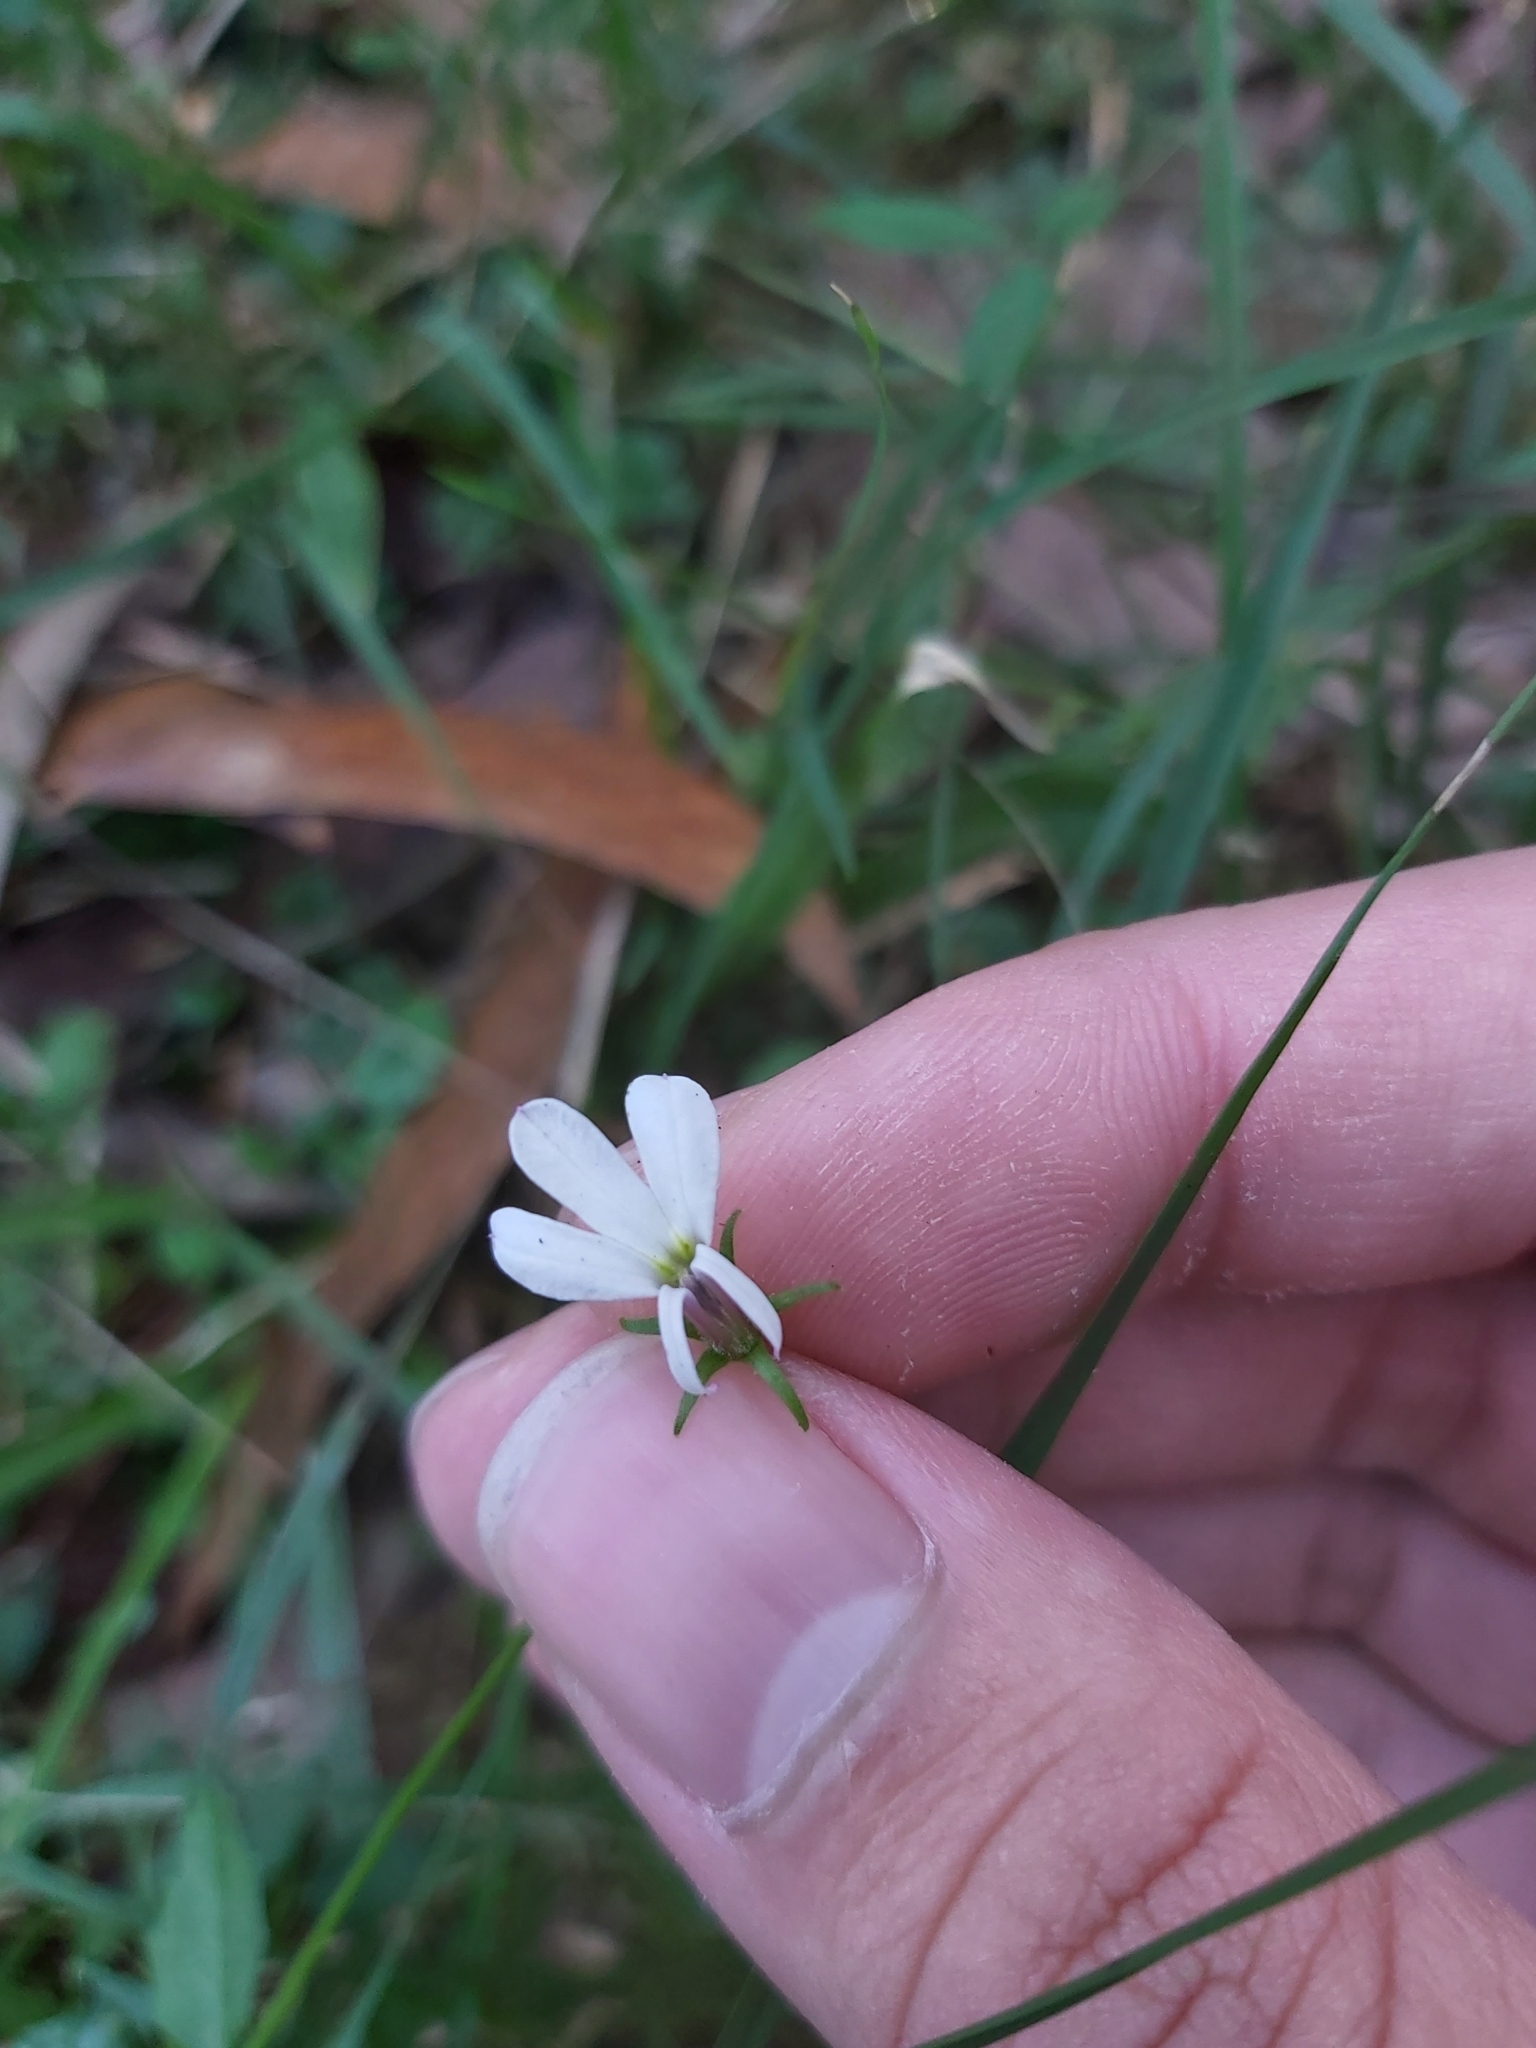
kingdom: Plantae
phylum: Tracheophyta
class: Magnoliopsida
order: Asterales
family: Campanulaceae
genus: Lobelia
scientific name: Lobelia purpurascens
